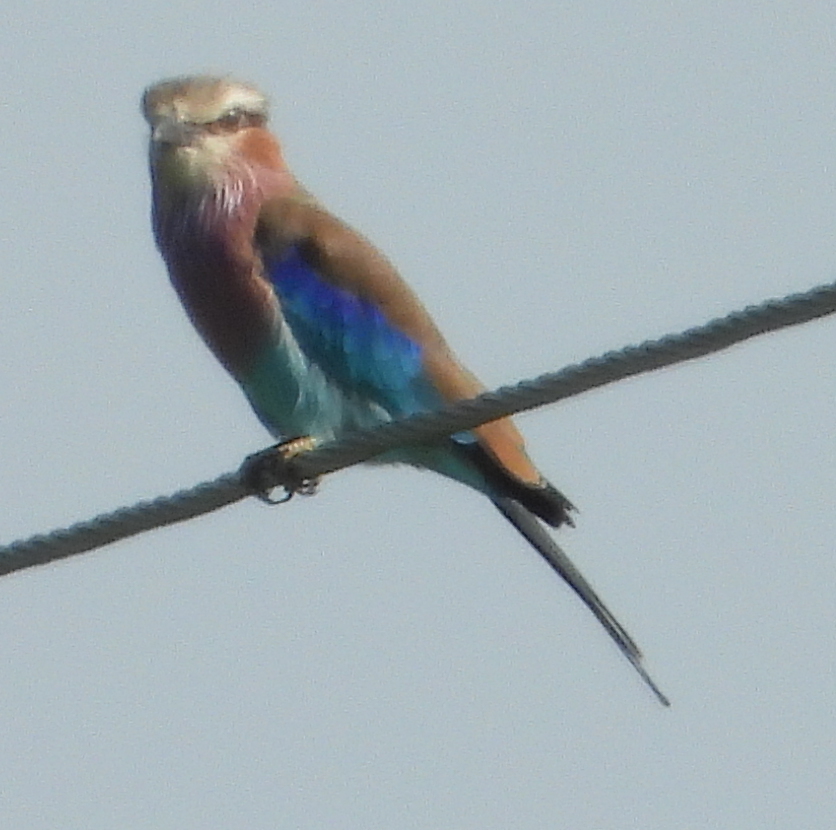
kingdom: Animalia
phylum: Chordata
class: Aves
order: Coraciiformes
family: Coraciidae
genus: Coracias
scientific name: Coracias caudatus
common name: Lilac-breasted roller
